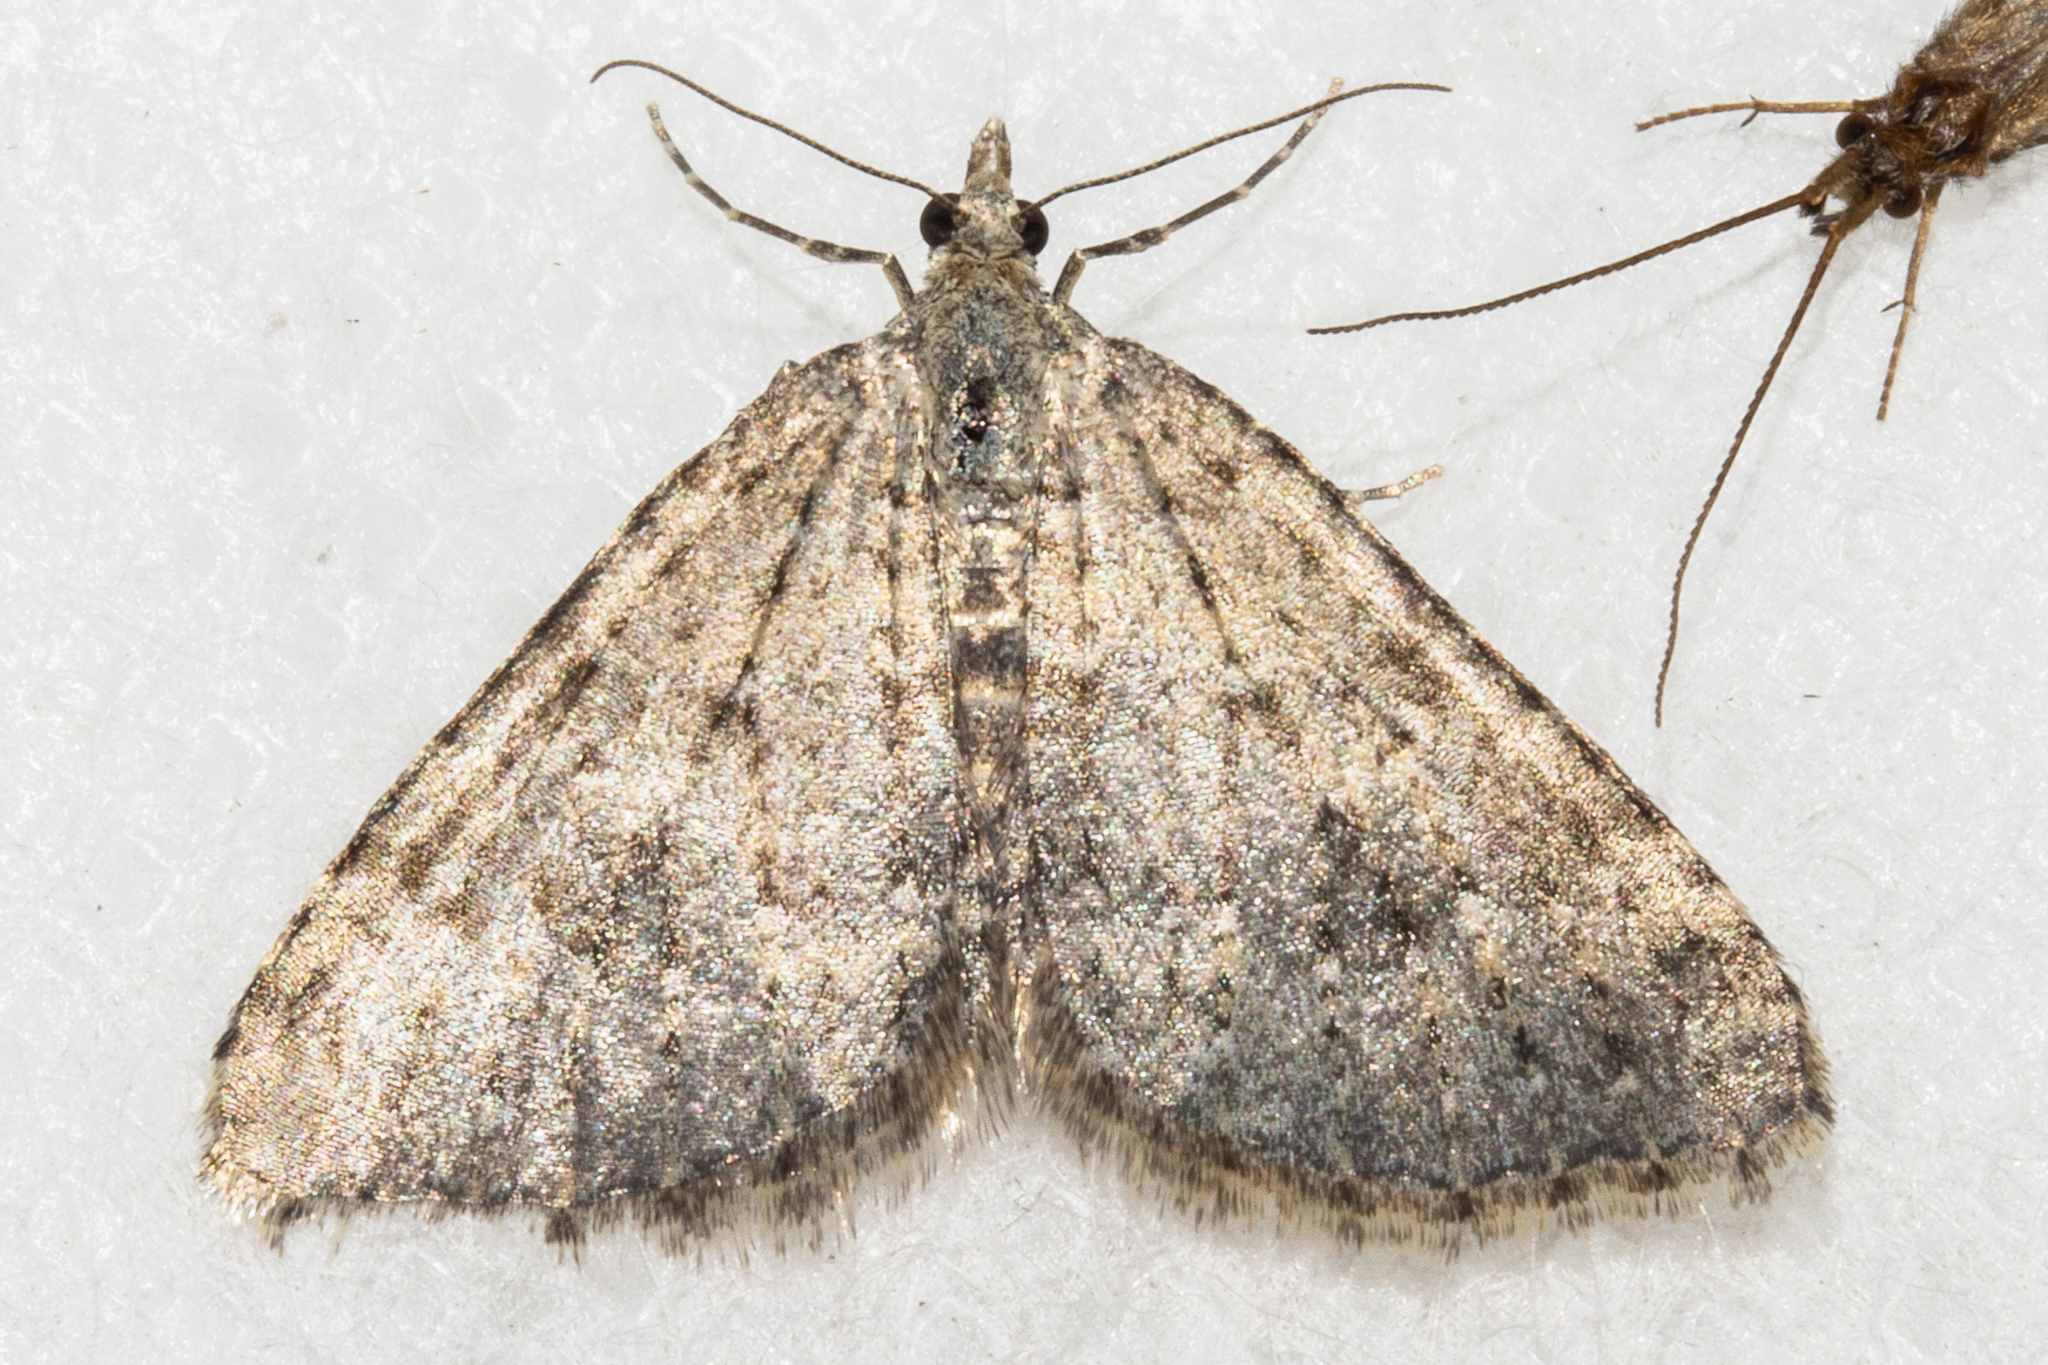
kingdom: Animalia
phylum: Arthropoda
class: Insecta
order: Lepidoptera
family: Geometridae
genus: Helastia
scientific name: Helastia corcularia
